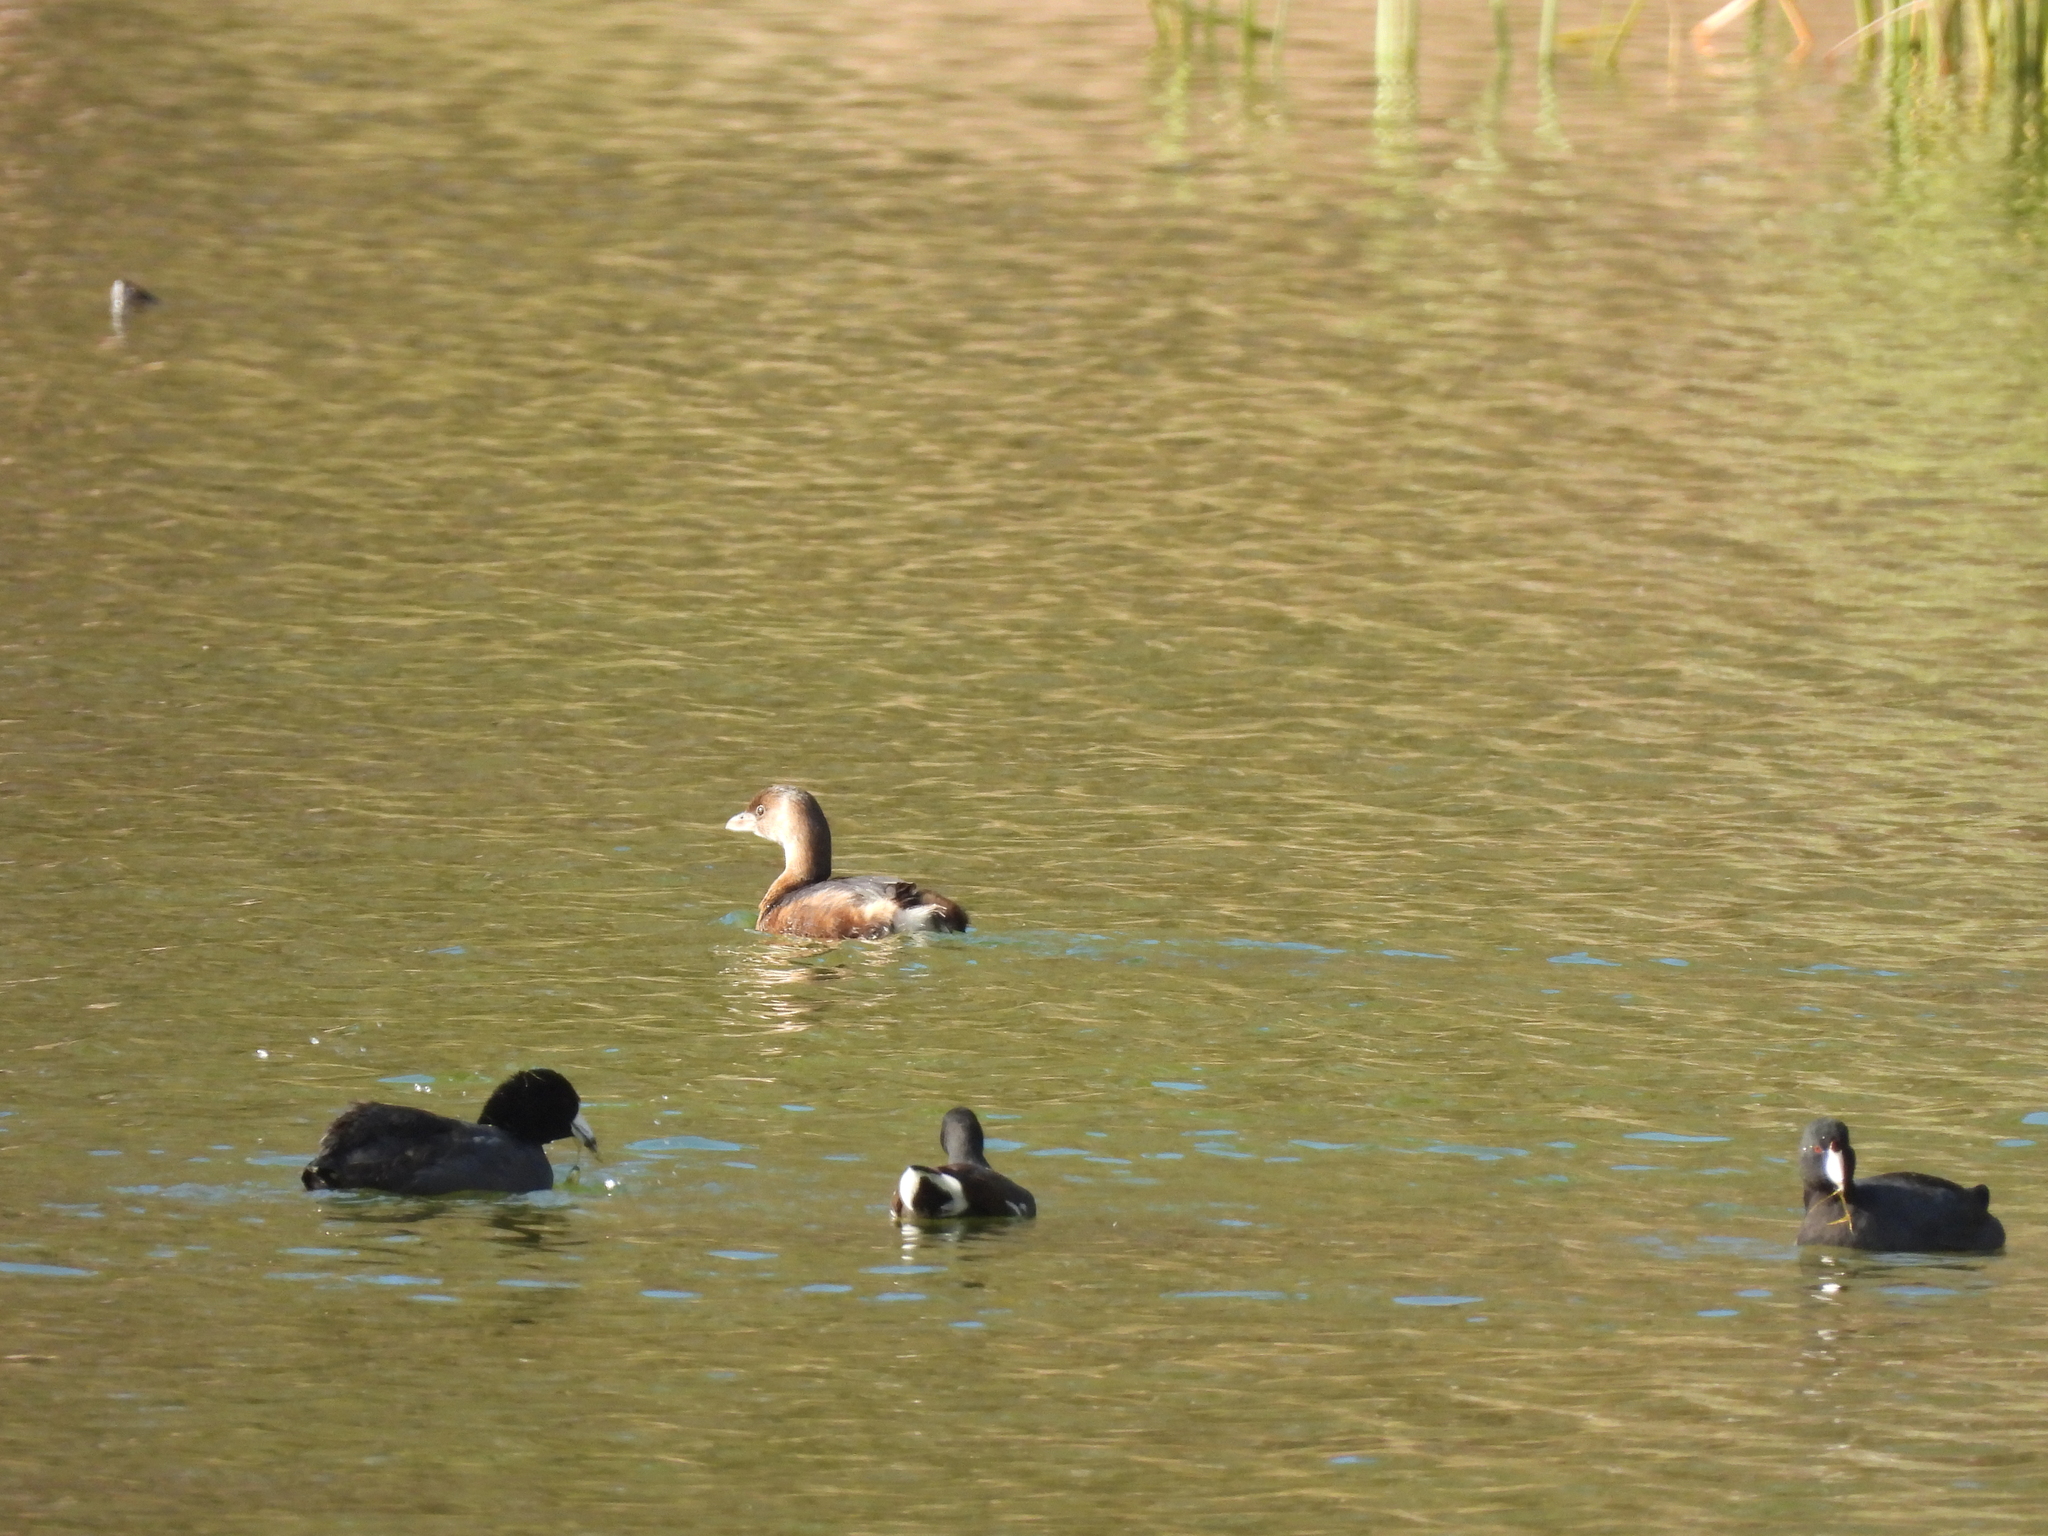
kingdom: Animalia
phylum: Chordata
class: Aves
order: Podicipediformes
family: Podicipedidae
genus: Podilymbus
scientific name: Podilymbus podiceps
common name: Pied-billed grebe
